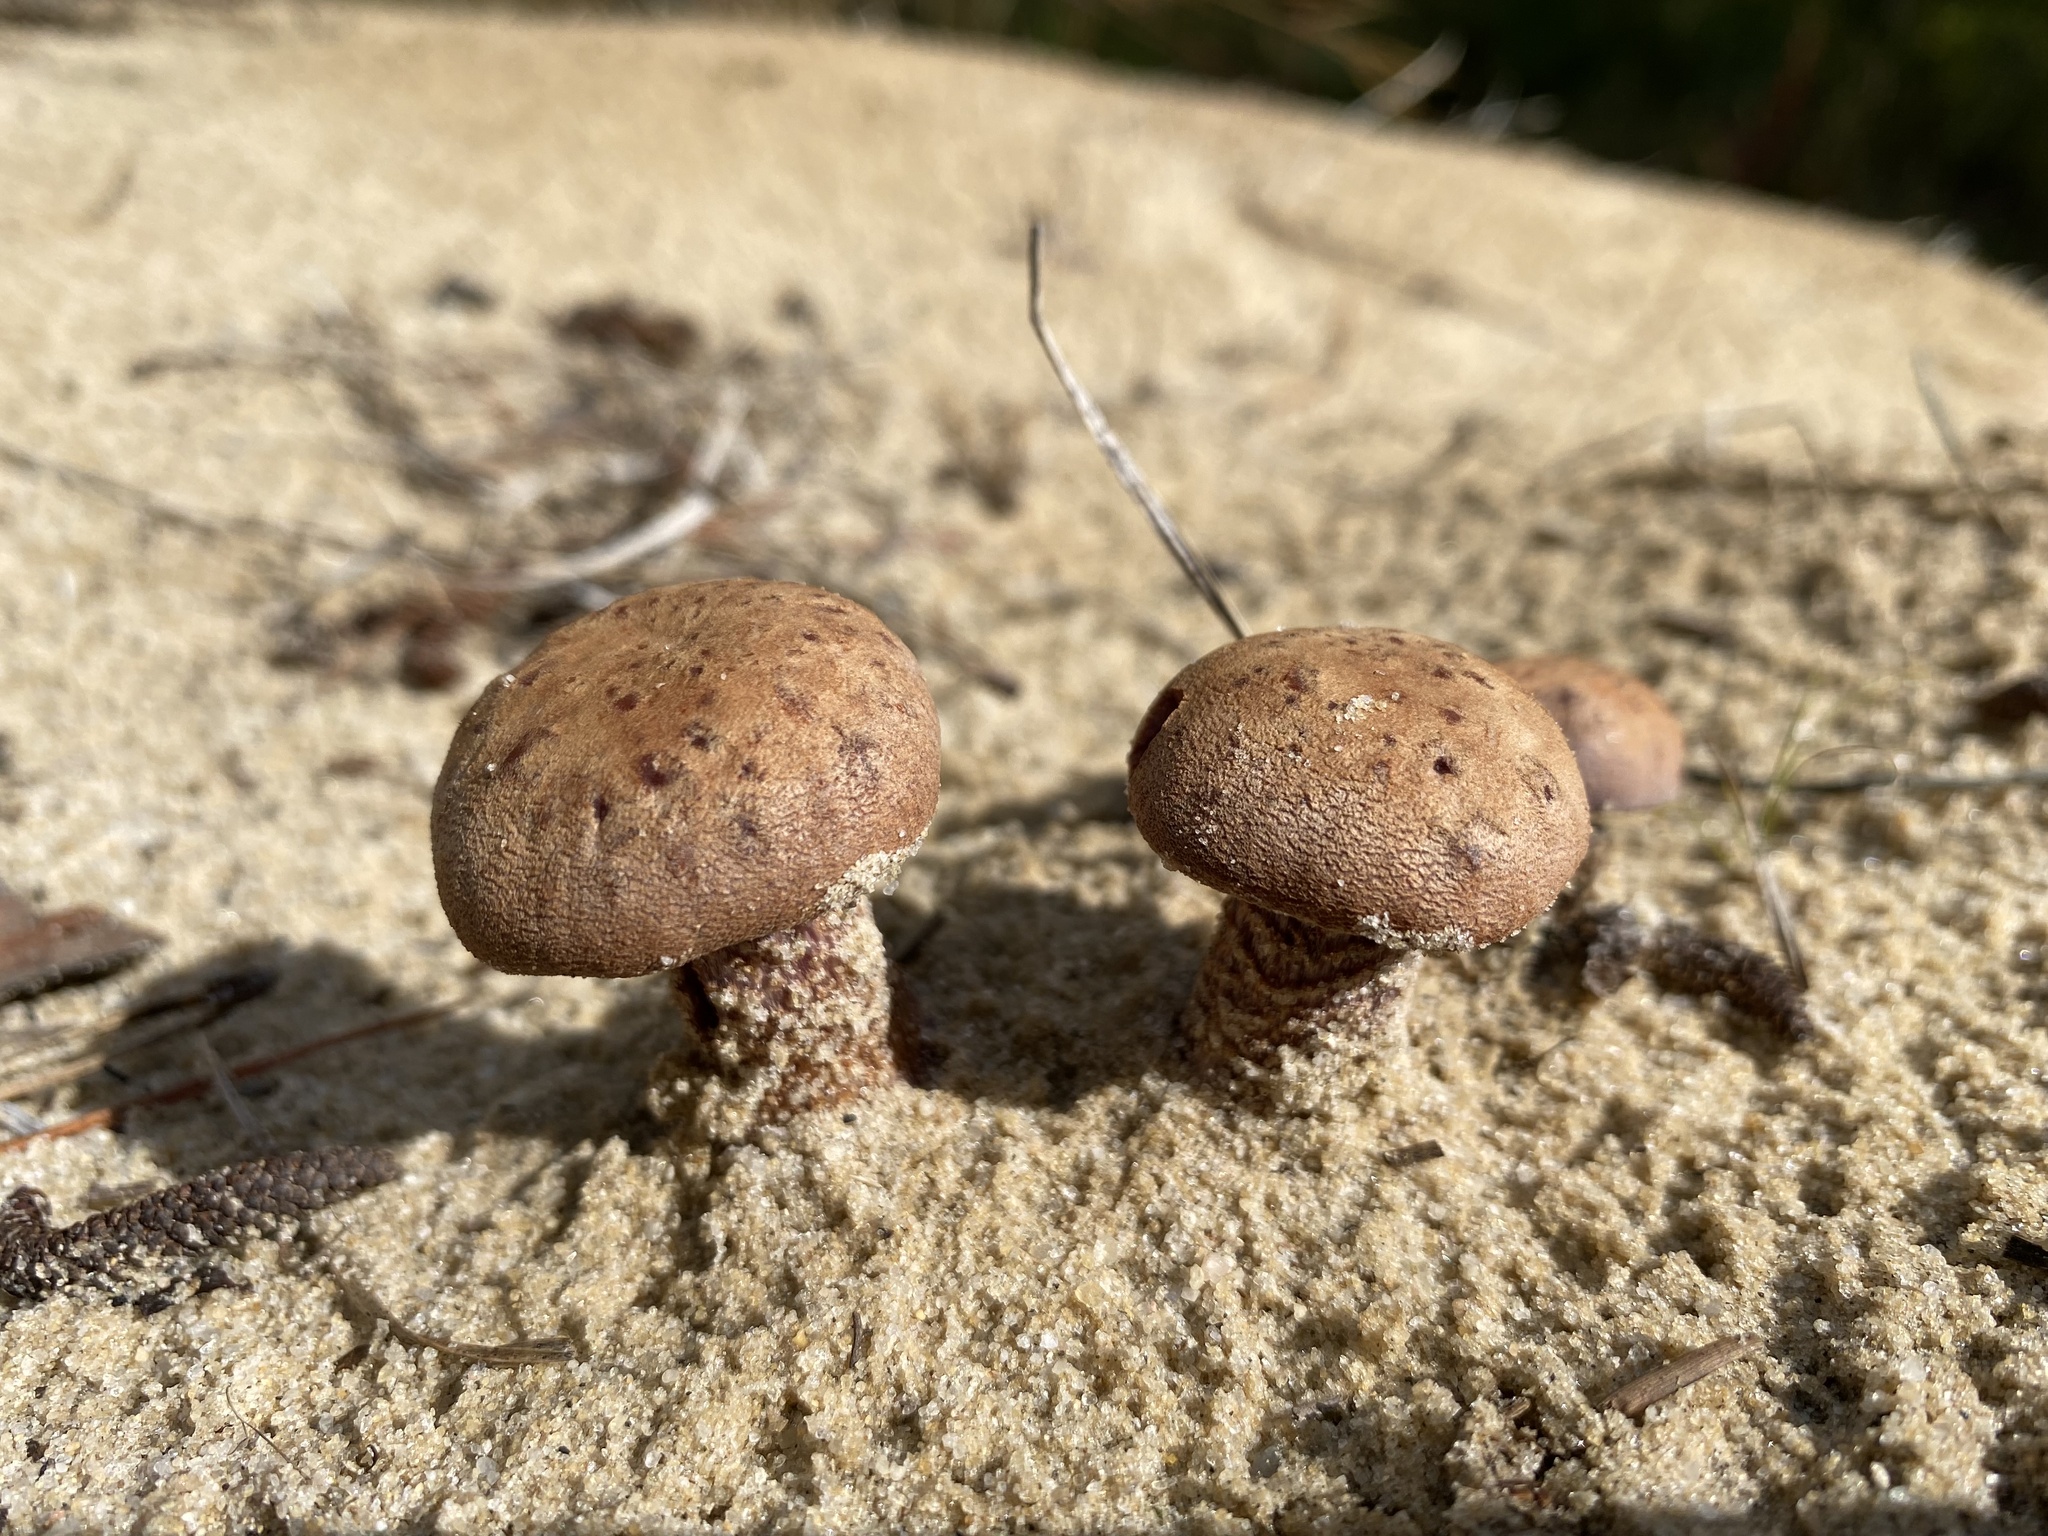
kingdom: Fungi
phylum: Basidiomycota
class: Agaricomycetes
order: Agaricales
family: Hydnangiaceae
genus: Laccaria
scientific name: Laccaria trullissata
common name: Sandy laccaria
